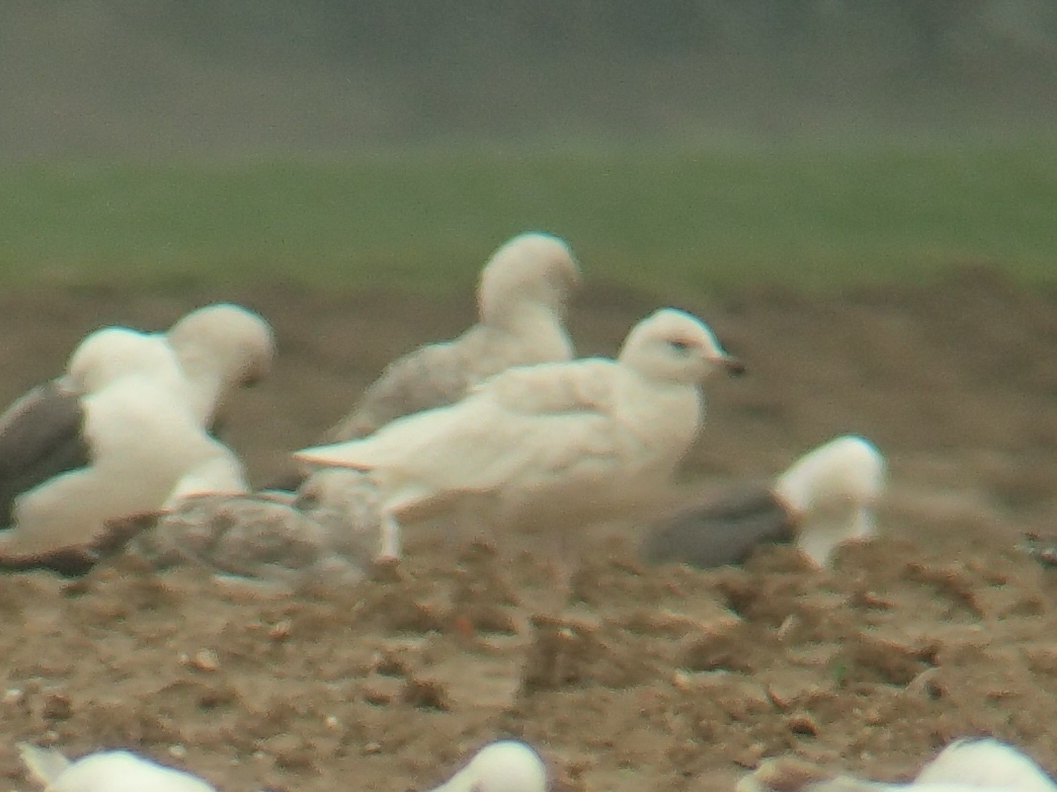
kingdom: Animalia
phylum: Chordata
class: Aves
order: Charadriiformes
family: Laridae
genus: Larus
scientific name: Larus glaucoides
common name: Iceland gull
